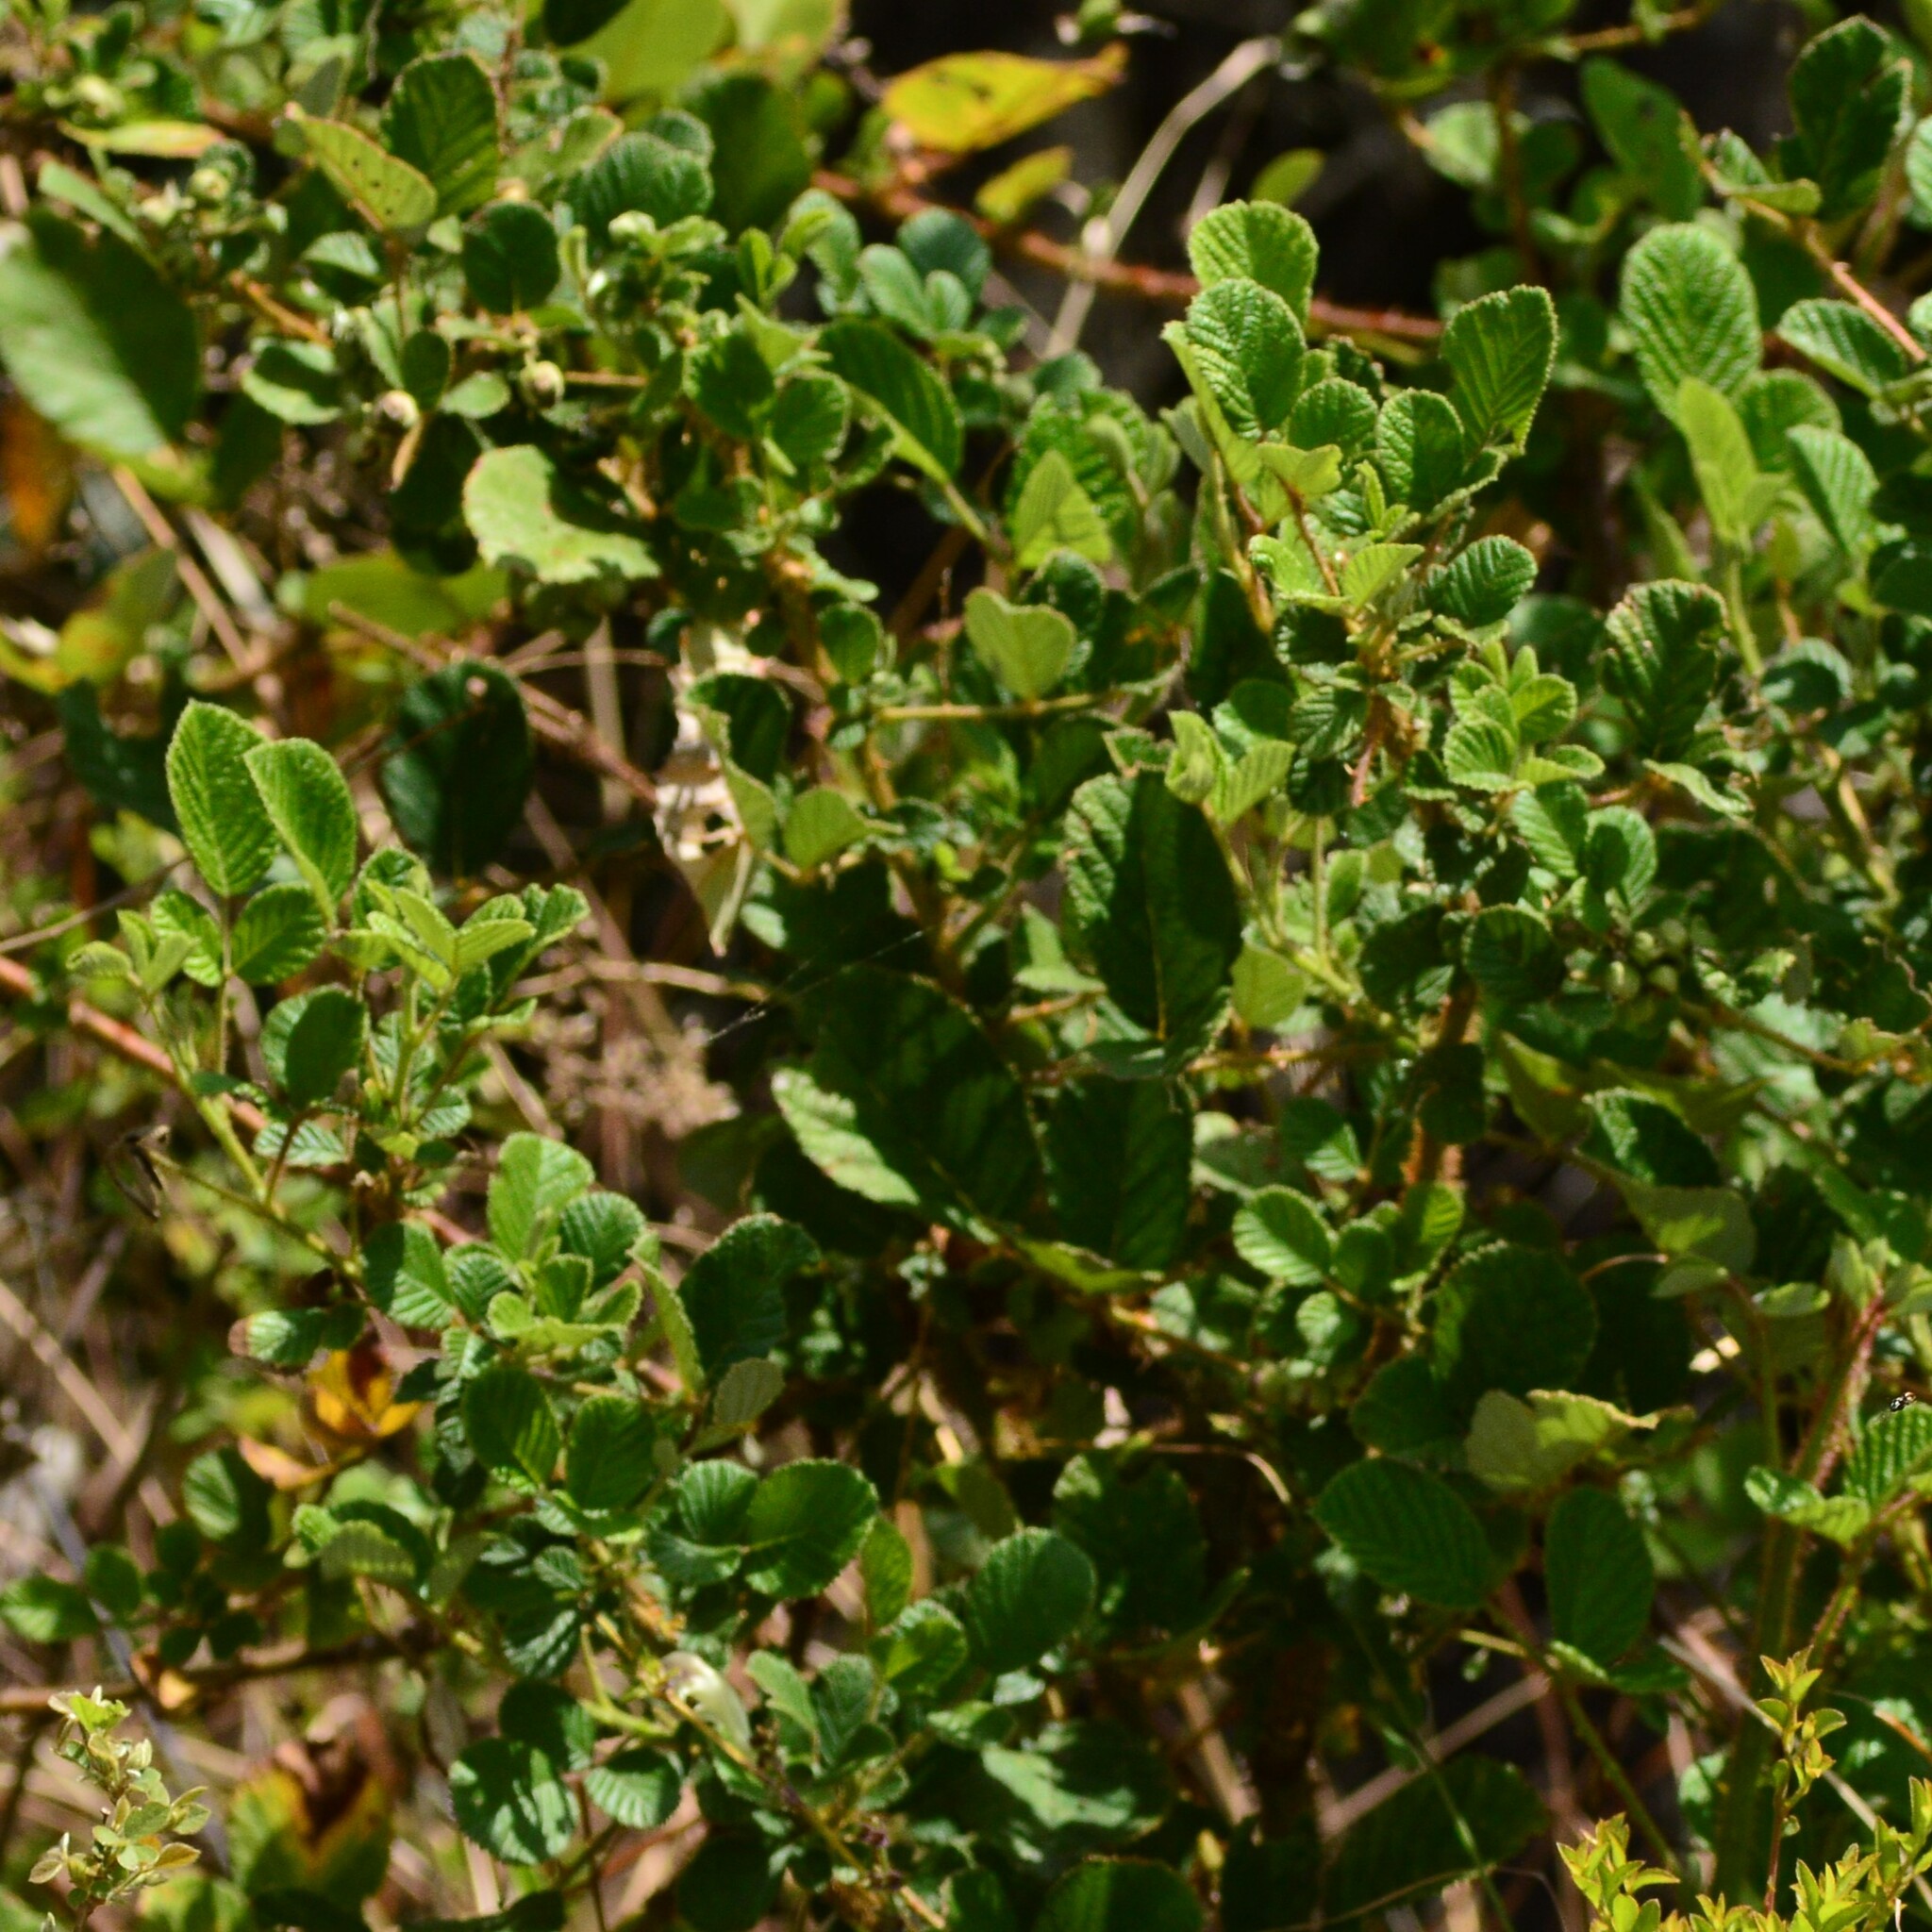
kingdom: Plantae
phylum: Tracheophyta
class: Magnoliopsida
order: Rosales
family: Rosaceae
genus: Rubus
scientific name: Rubus ellipticus
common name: Cheeseberry
